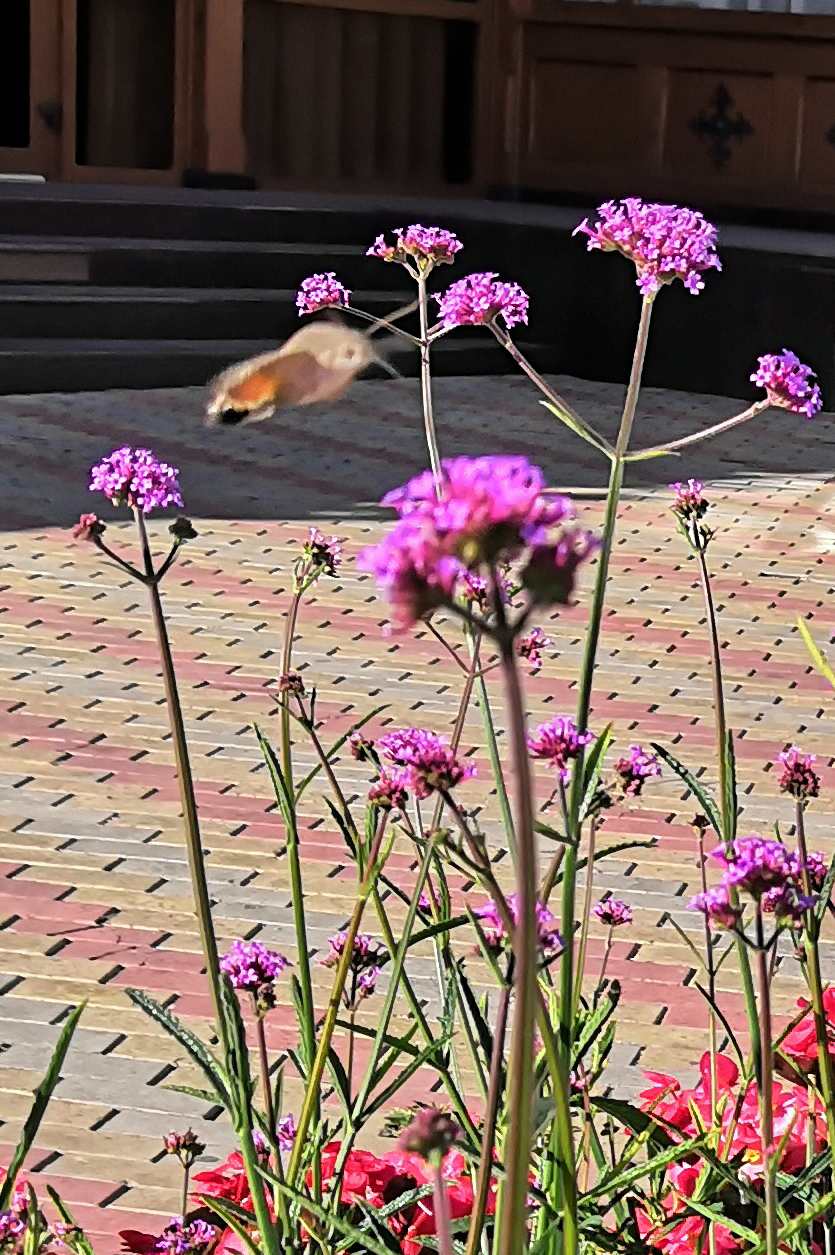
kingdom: Animalia
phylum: Arthropoda
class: Insecta
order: Lepidoptera
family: Sphingidae
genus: Macroglossum
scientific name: Macroglossum stellatarum
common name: Humming-bird hawk-moth
